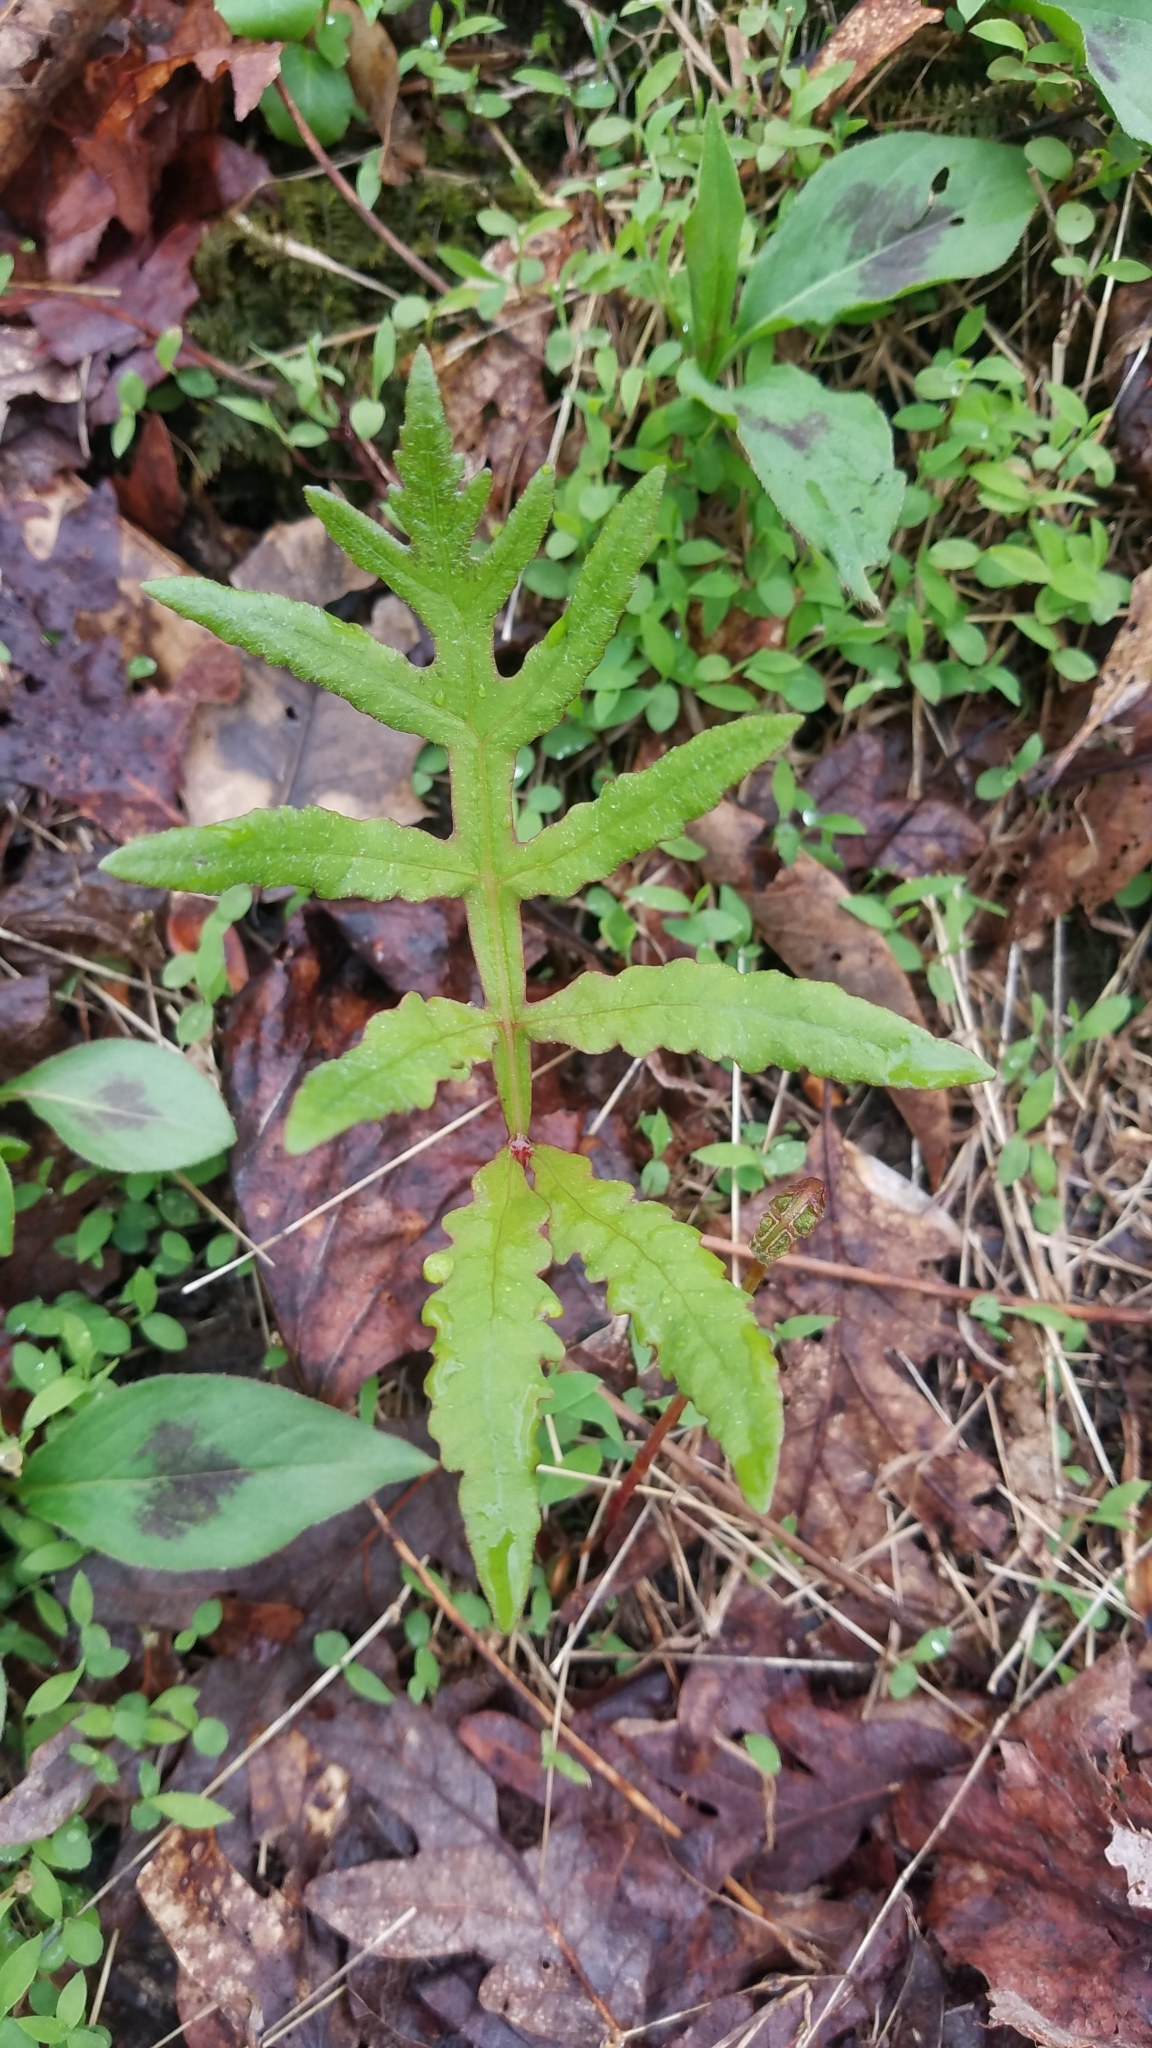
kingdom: Plantae
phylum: Tracheophyta
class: Polypodiopsida
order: Polypodiales
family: Onocleaceae
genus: Onoclea
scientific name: Onoclea sensibilis
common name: Sensitive fern
